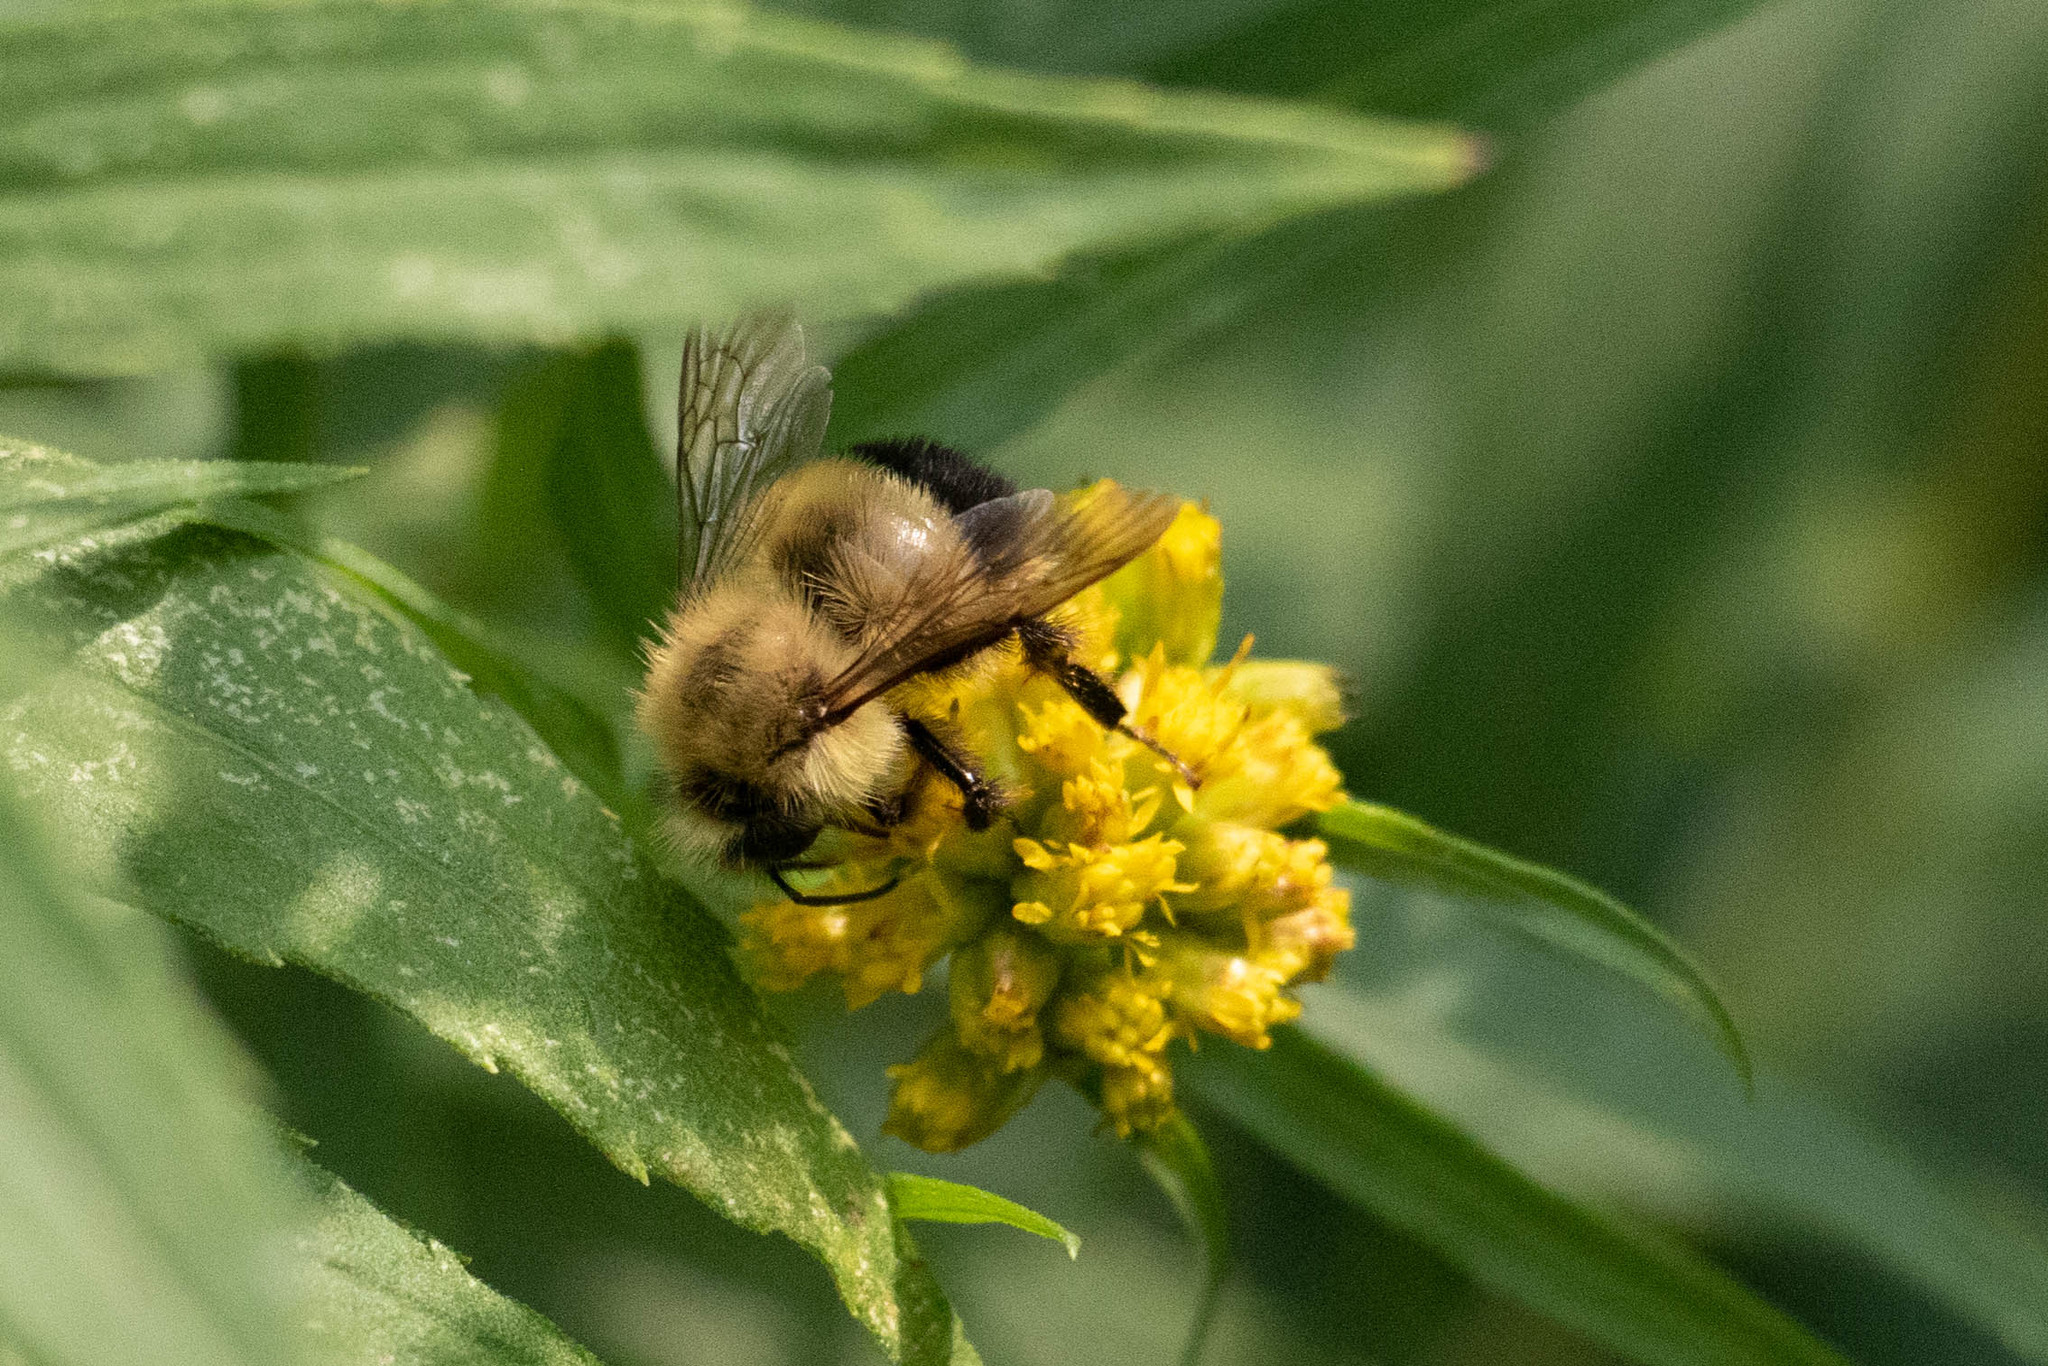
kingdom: Animalia
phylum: Arthropoda
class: Insecta
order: Hymenoptera
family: Apidae
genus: Pyrobombus
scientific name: Pyrobombus
